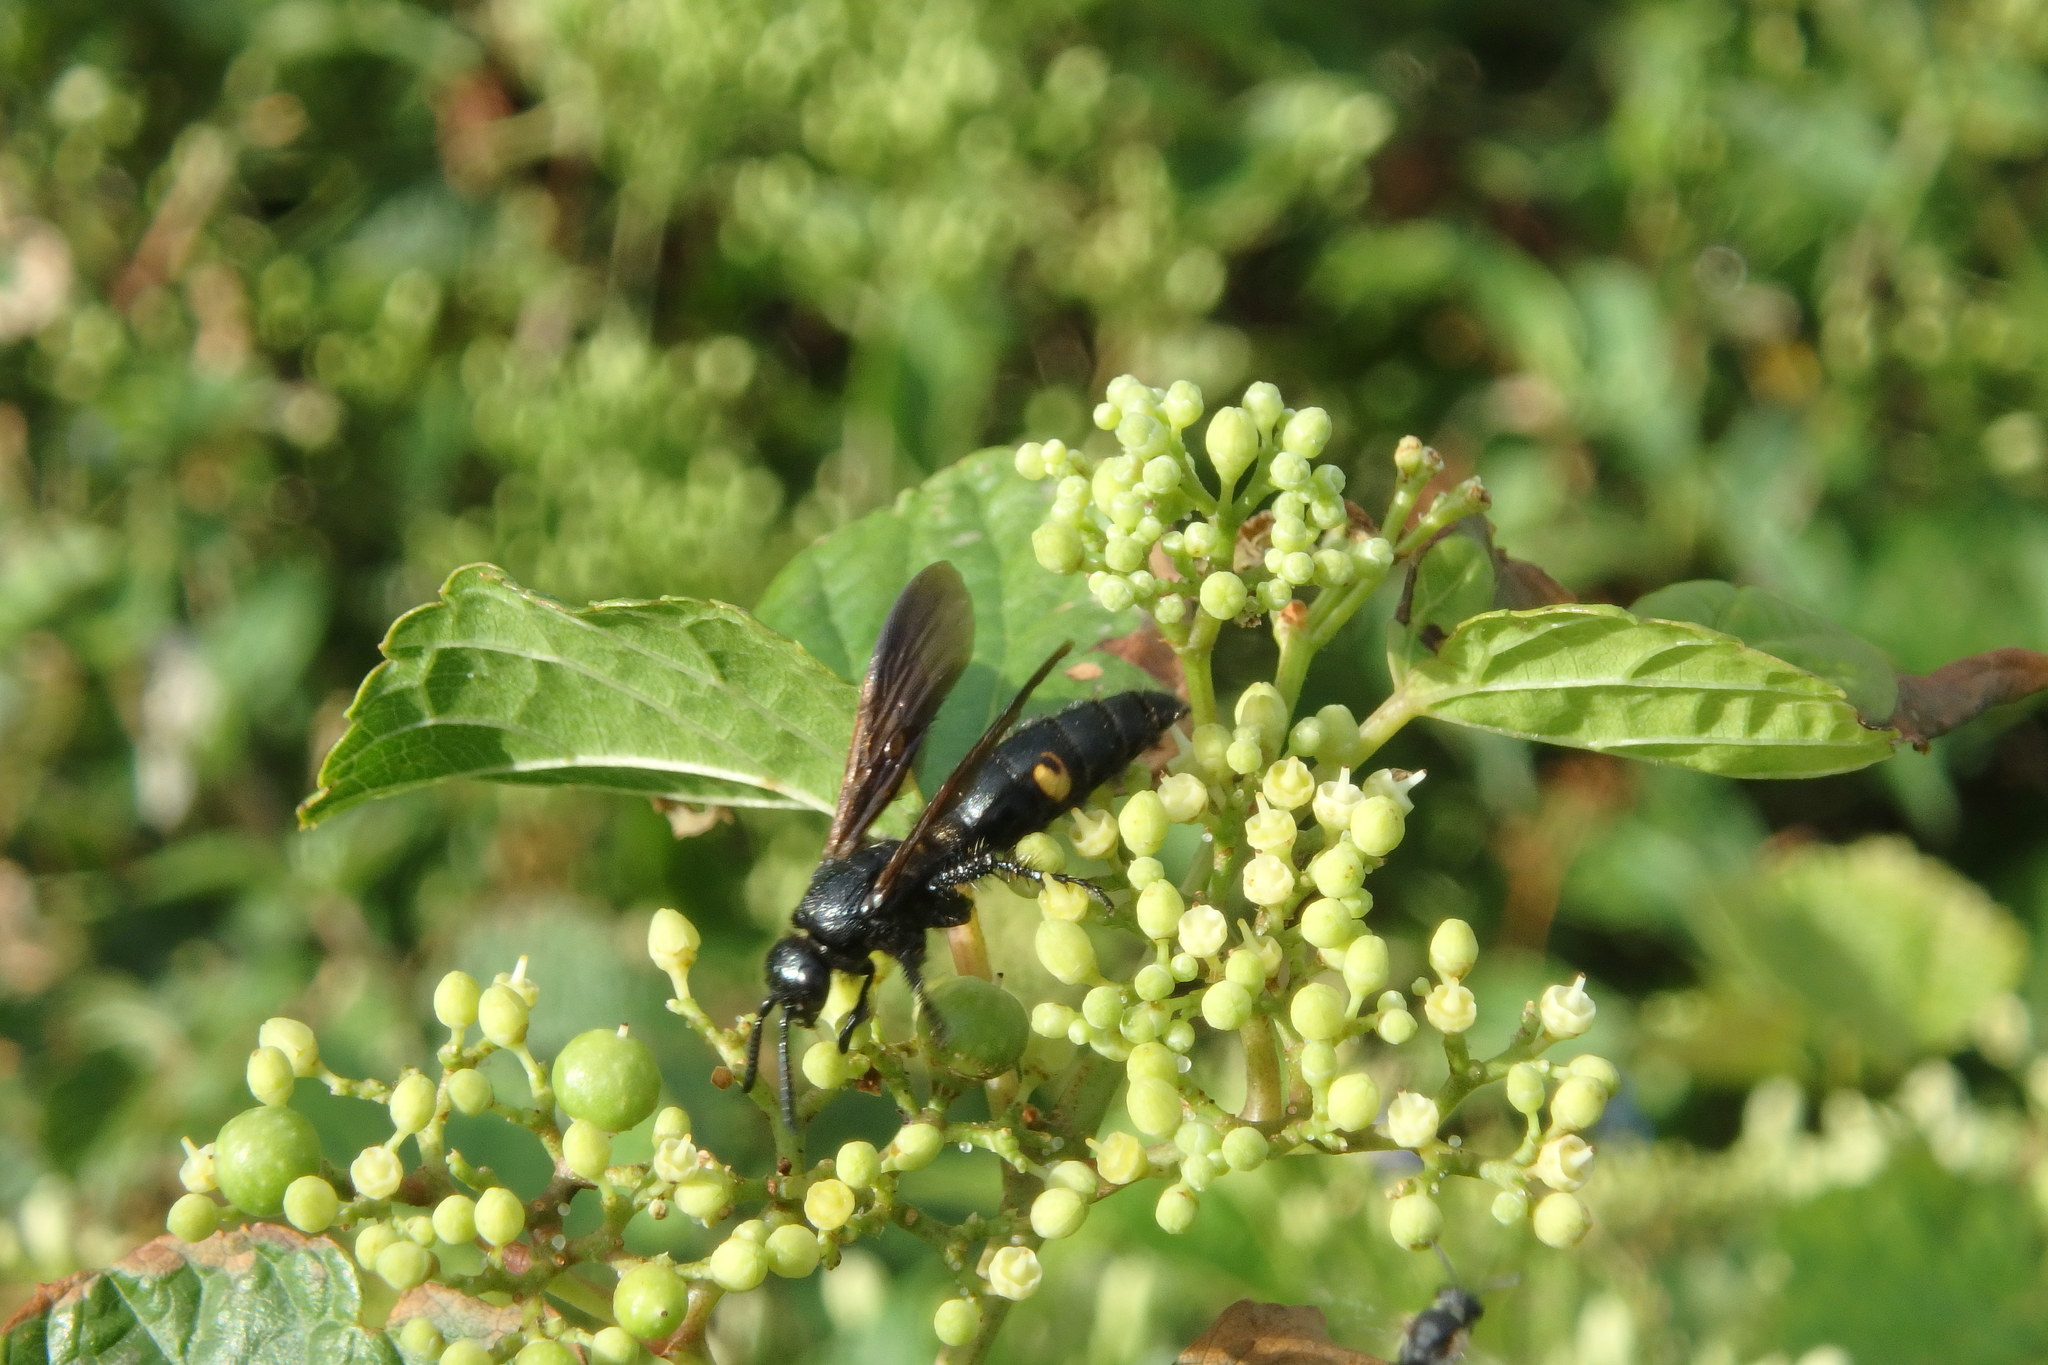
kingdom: Animalia
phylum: Arthropoda
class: Insecta
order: Hymenoptera
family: Scoliidae
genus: Scolia
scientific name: Scolia oculata
